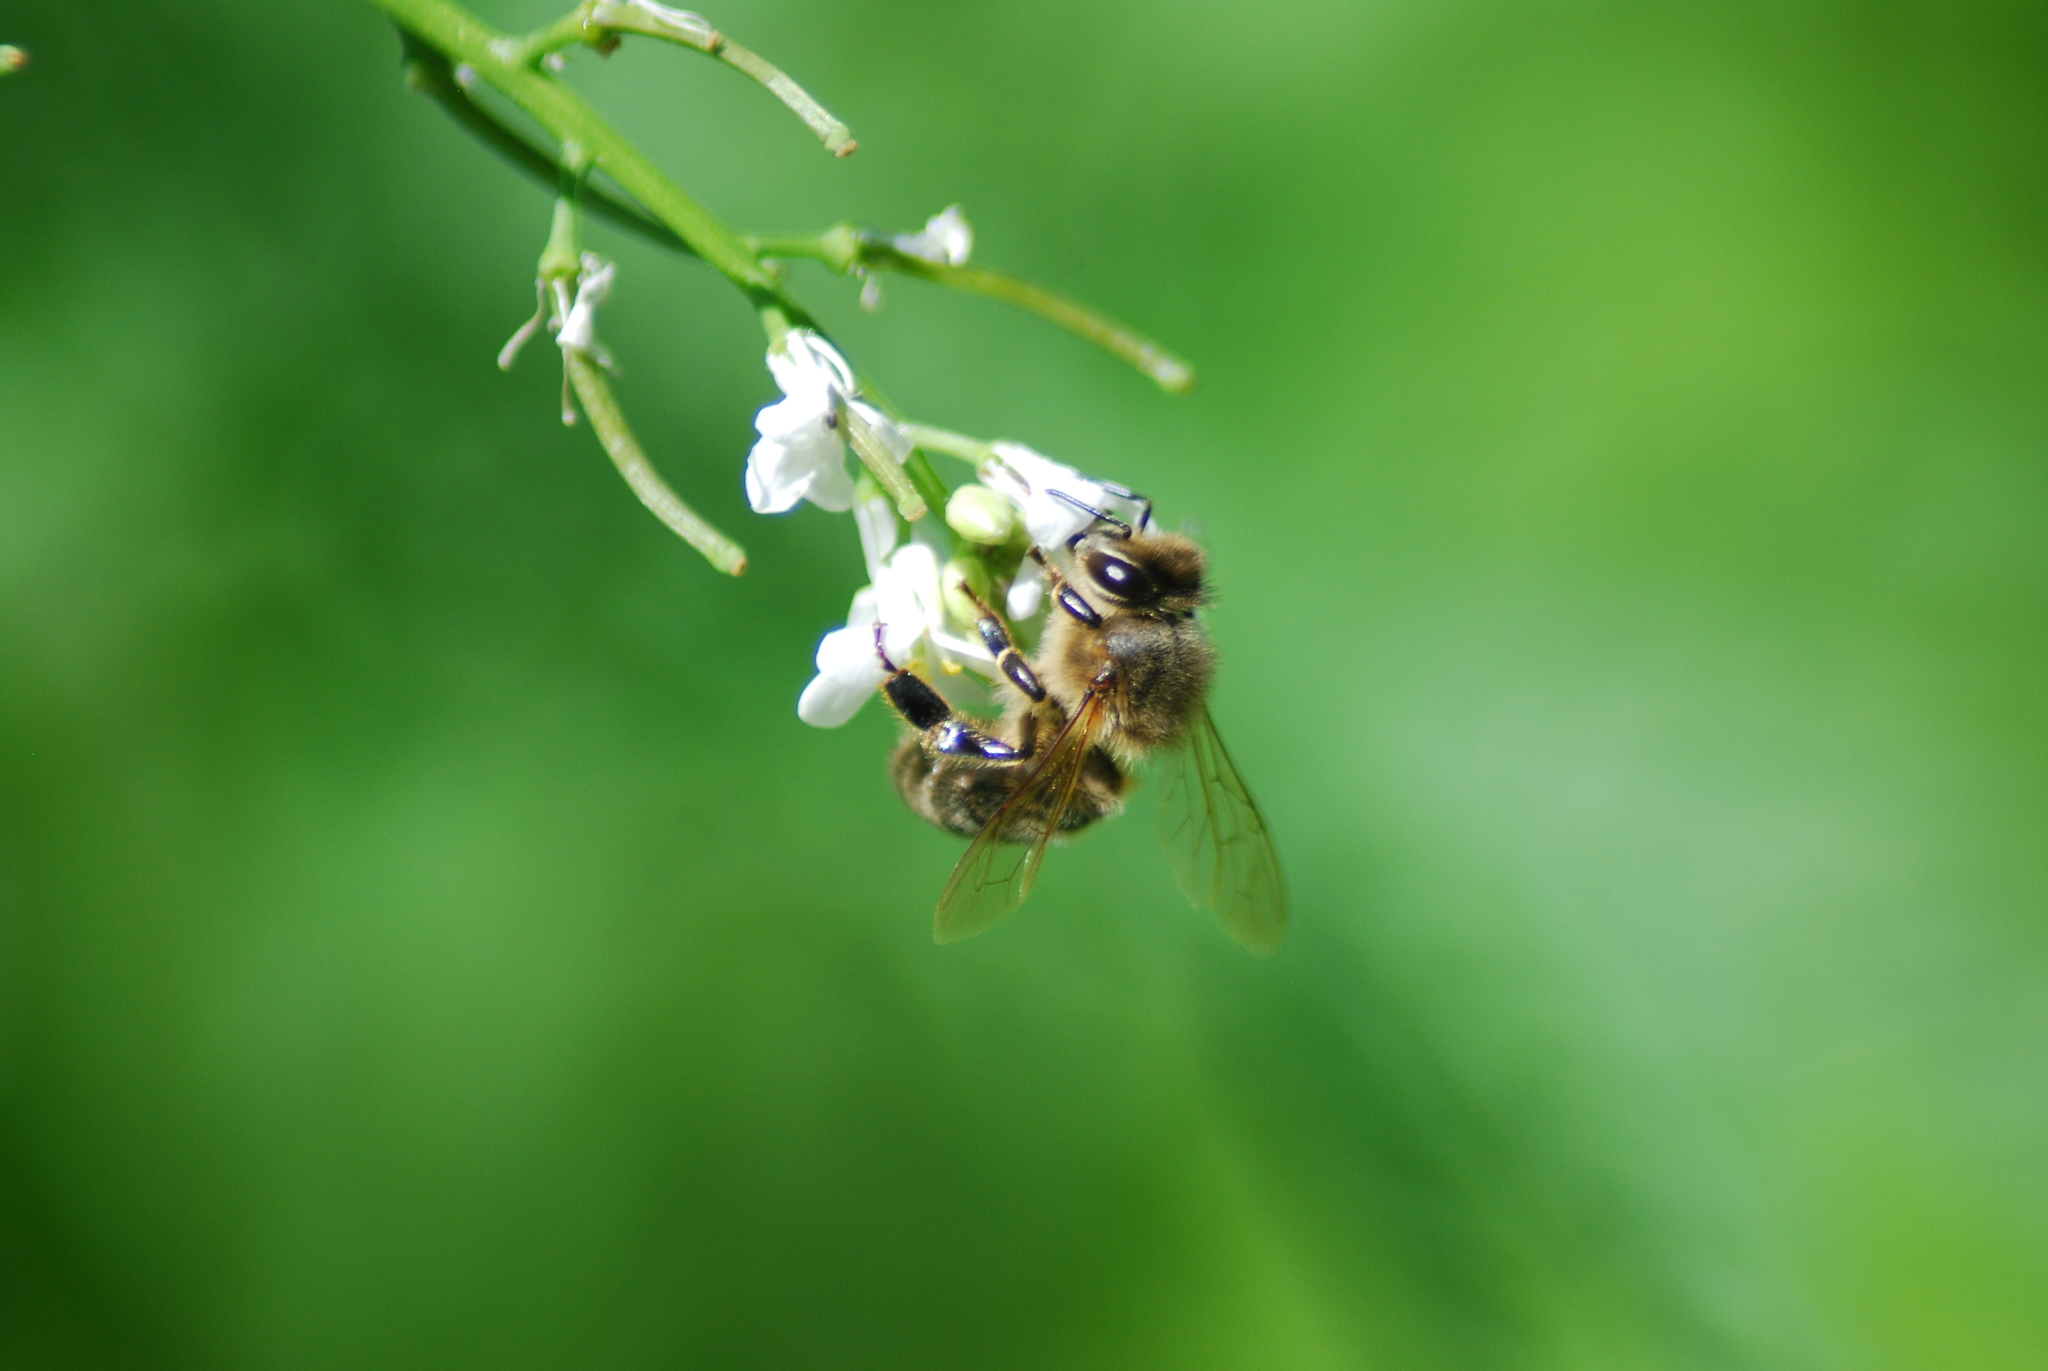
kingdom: Animalia
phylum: Arthropoda
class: Insecta
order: Hymenoptera
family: Apidae
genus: Apis
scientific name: Apis mellifera
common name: Honey bee
